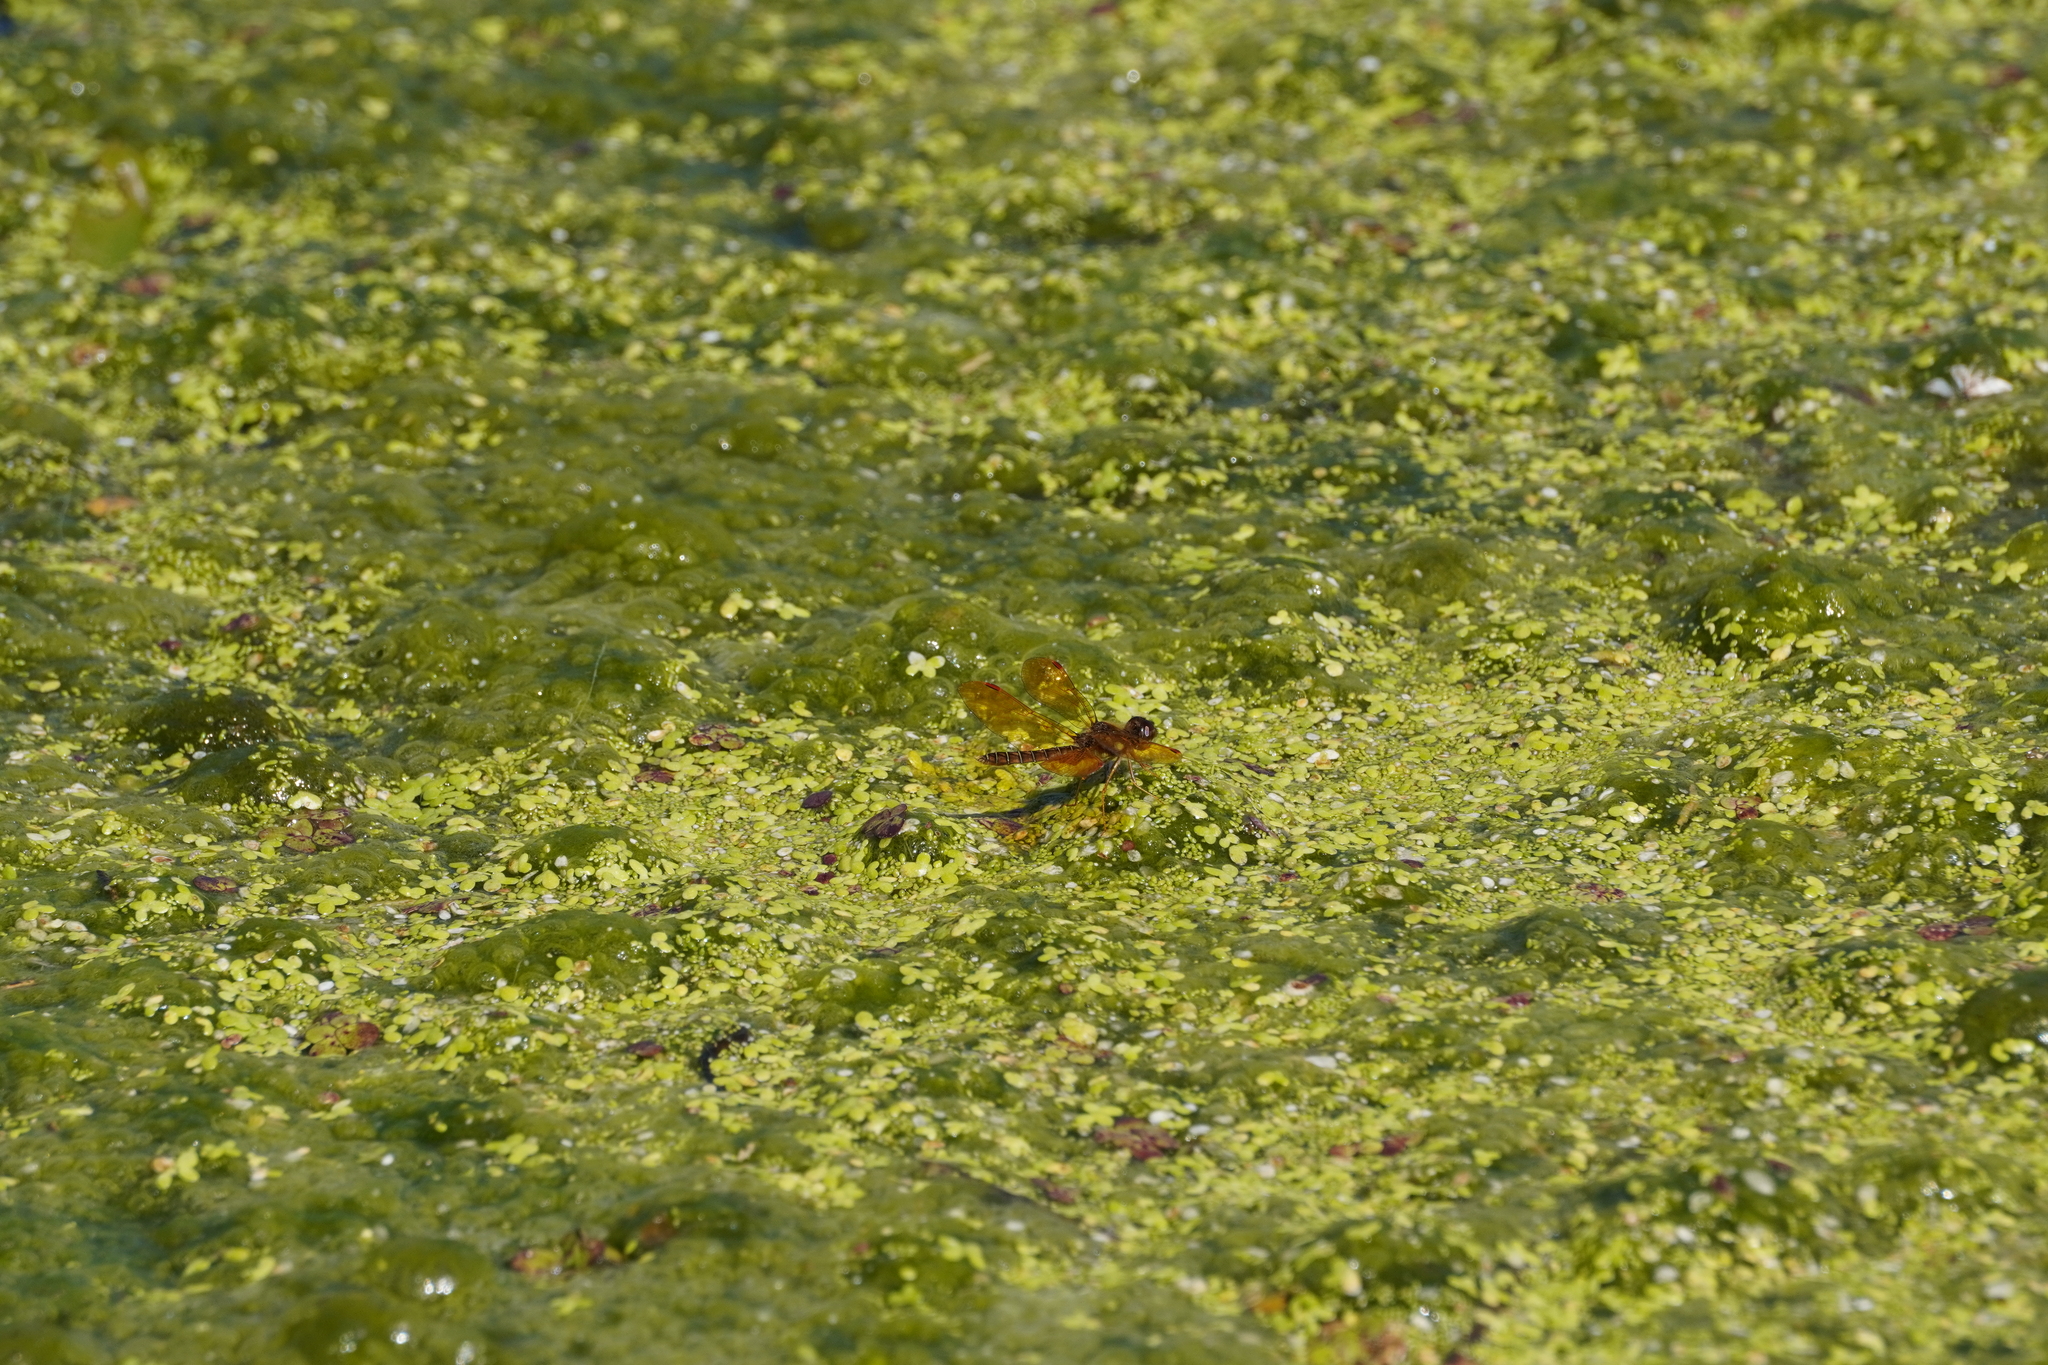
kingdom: Animalia
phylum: Arthropoda
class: Insecta
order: Odonata
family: Libellulidae
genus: Perithemis
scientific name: Perithemis tenera
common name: Eastern amberwing
